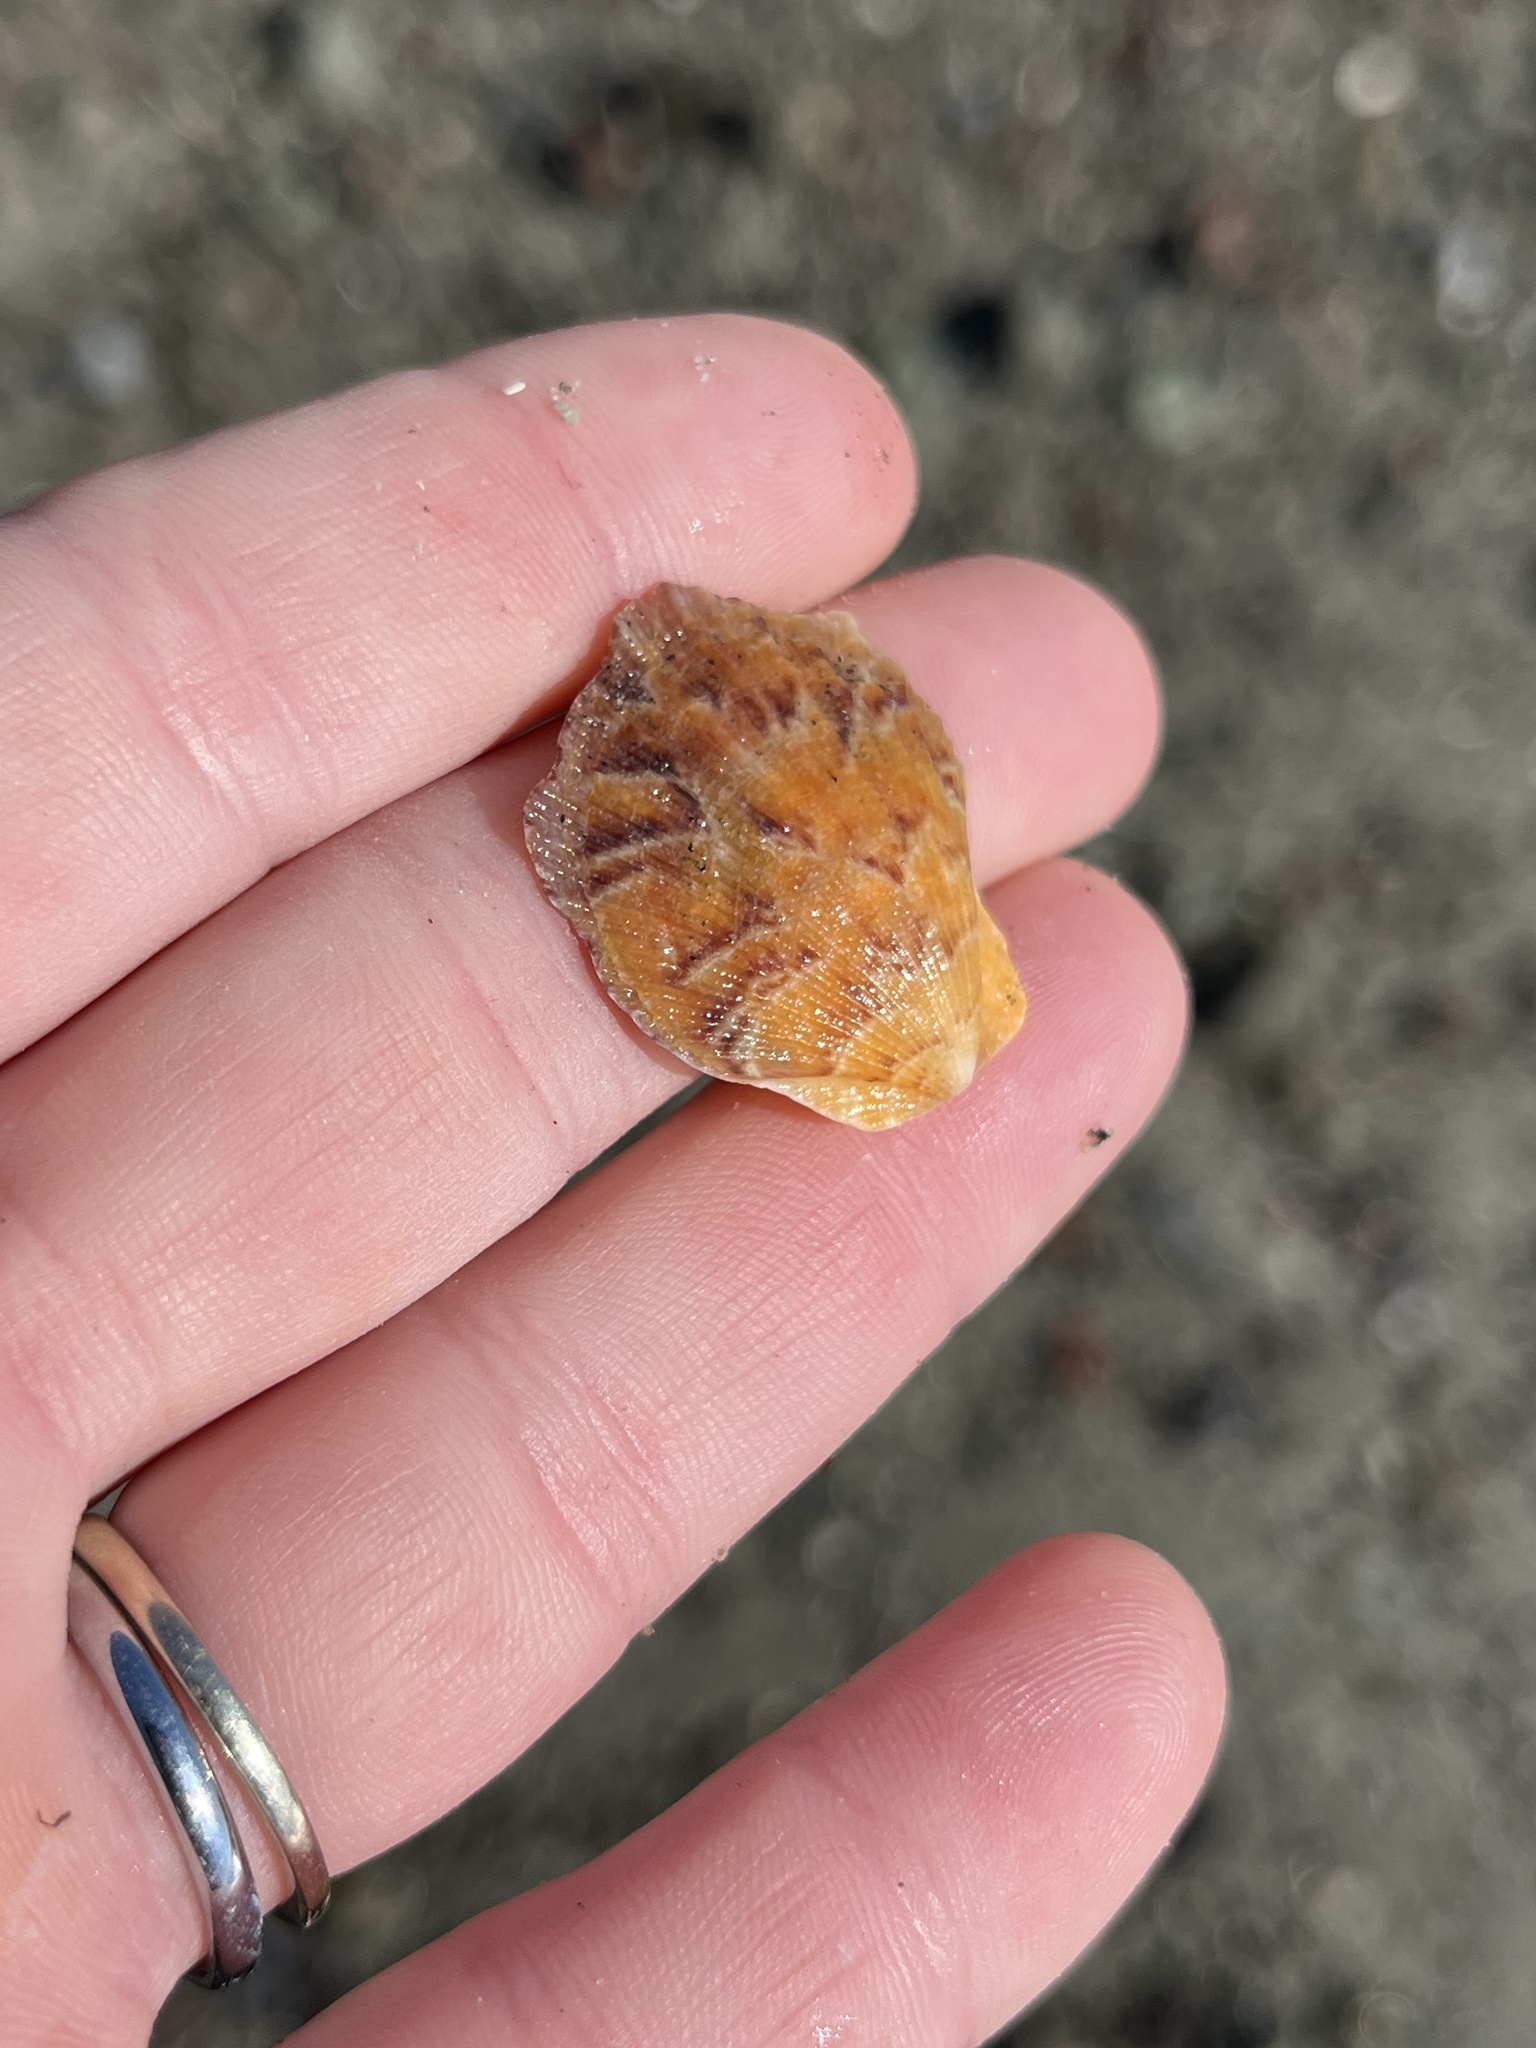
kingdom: Animalia
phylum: Mollusca
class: Bivalvia
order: Pectinida
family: Pectinidae
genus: Crassadoma
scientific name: Crassadoma gigantea
